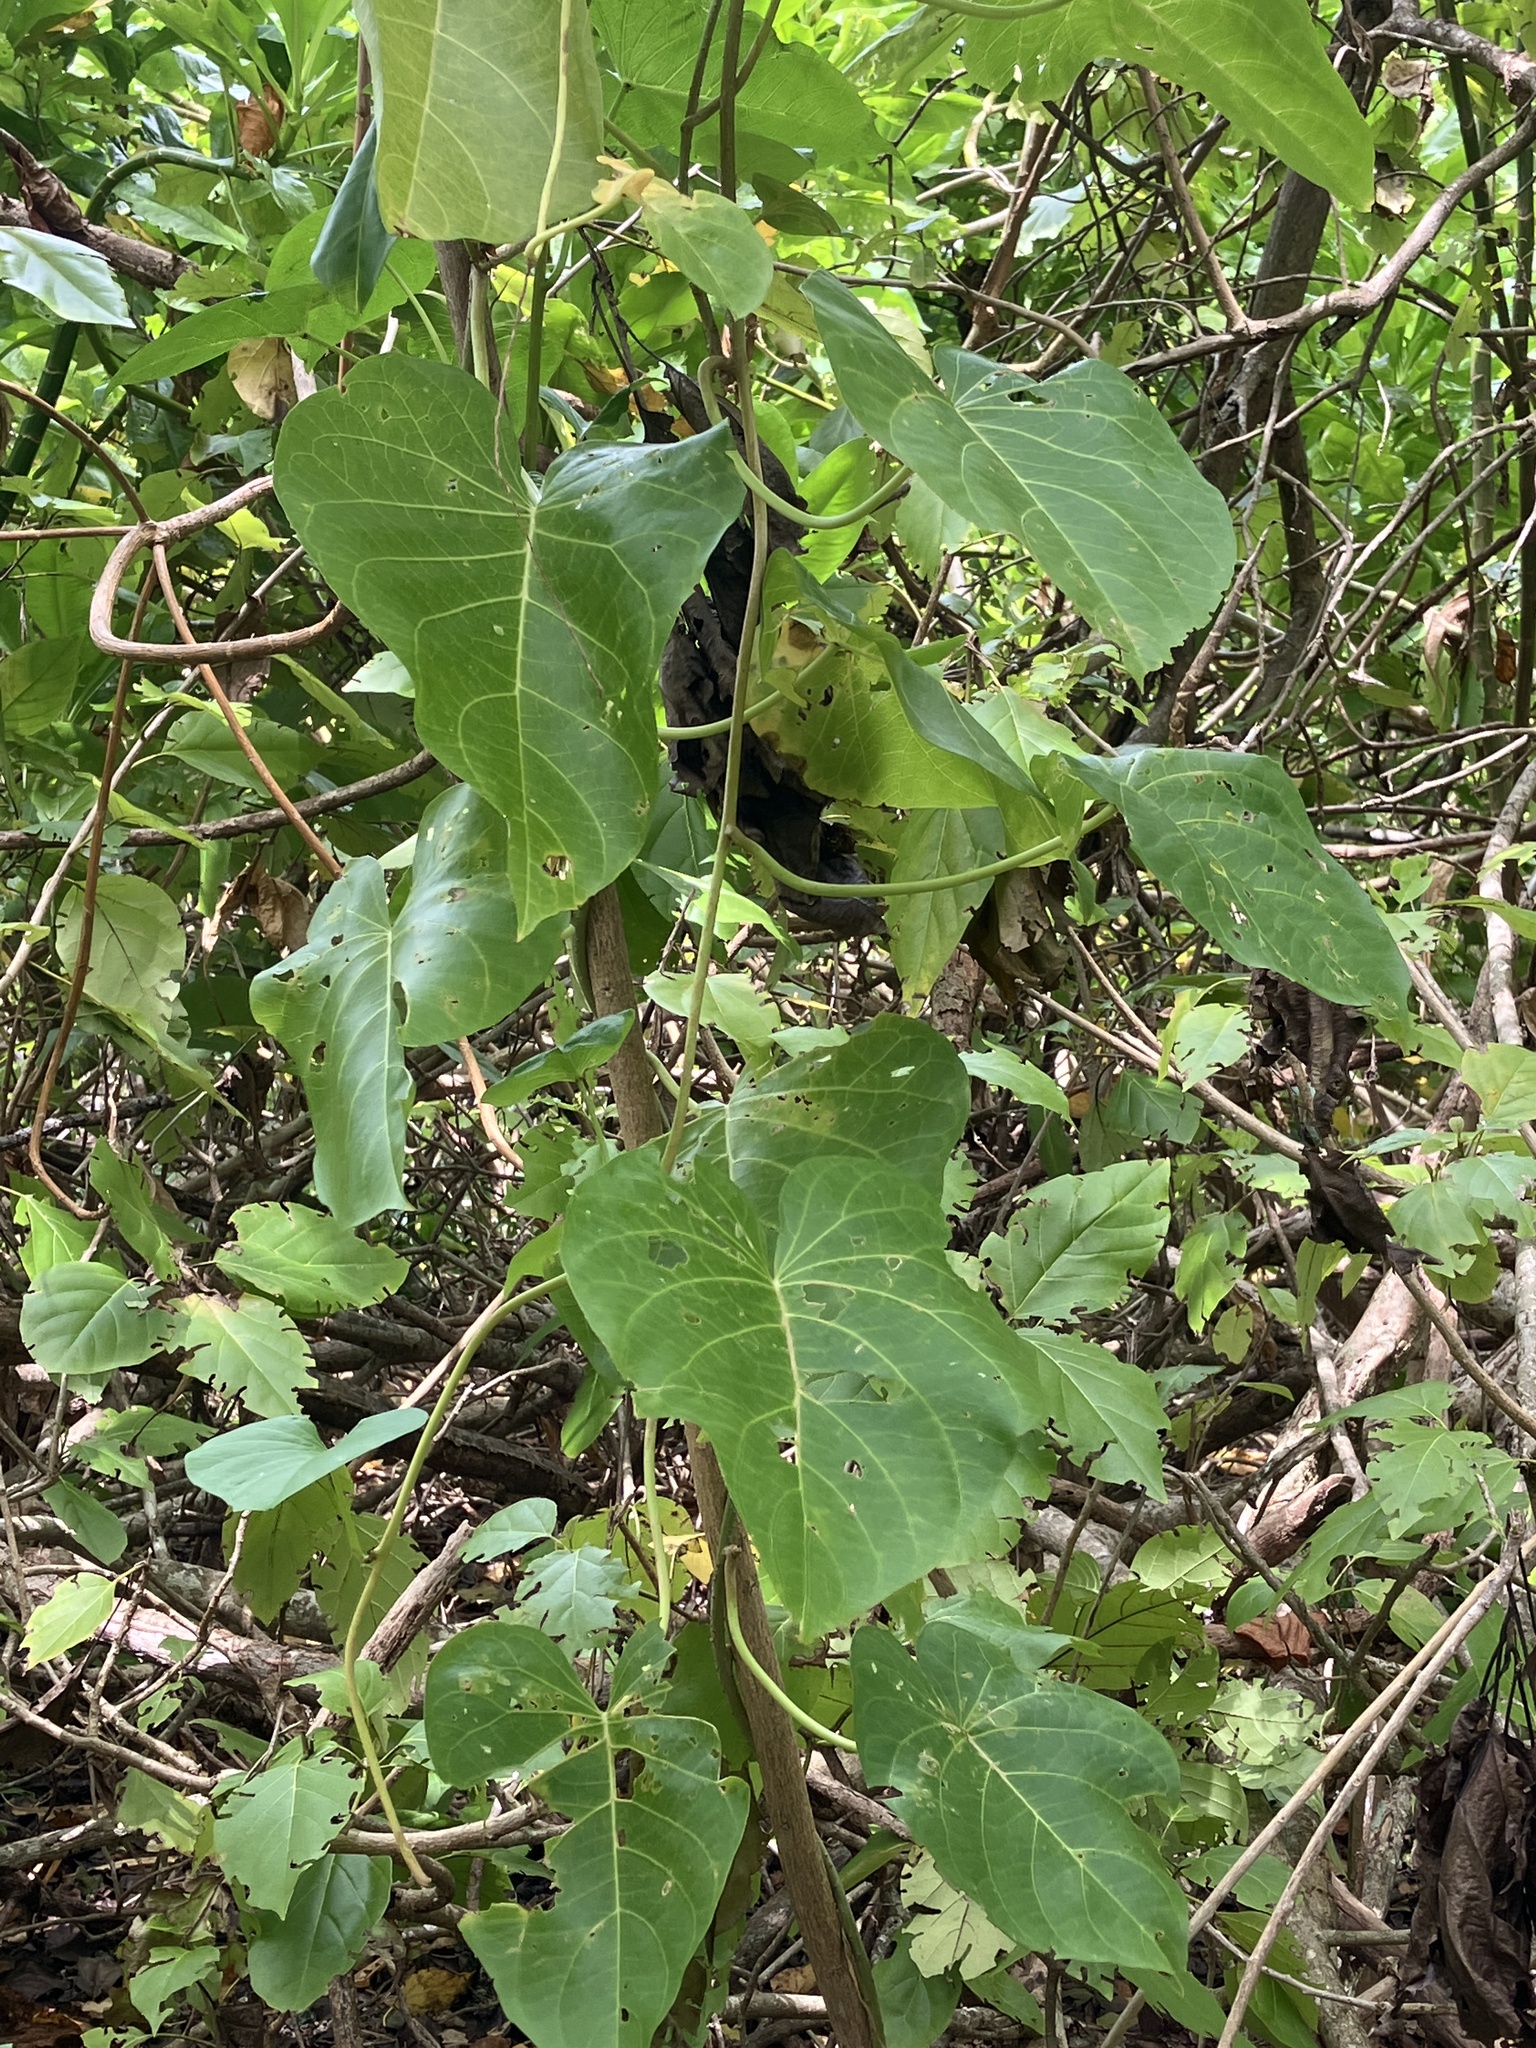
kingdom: Plantae
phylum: Tracheophyta
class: Magnoliopsida
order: Solanales
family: Convolvulaceae
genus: Ipomoea
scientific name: Ipomoea violacea
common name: Beach moonflower
